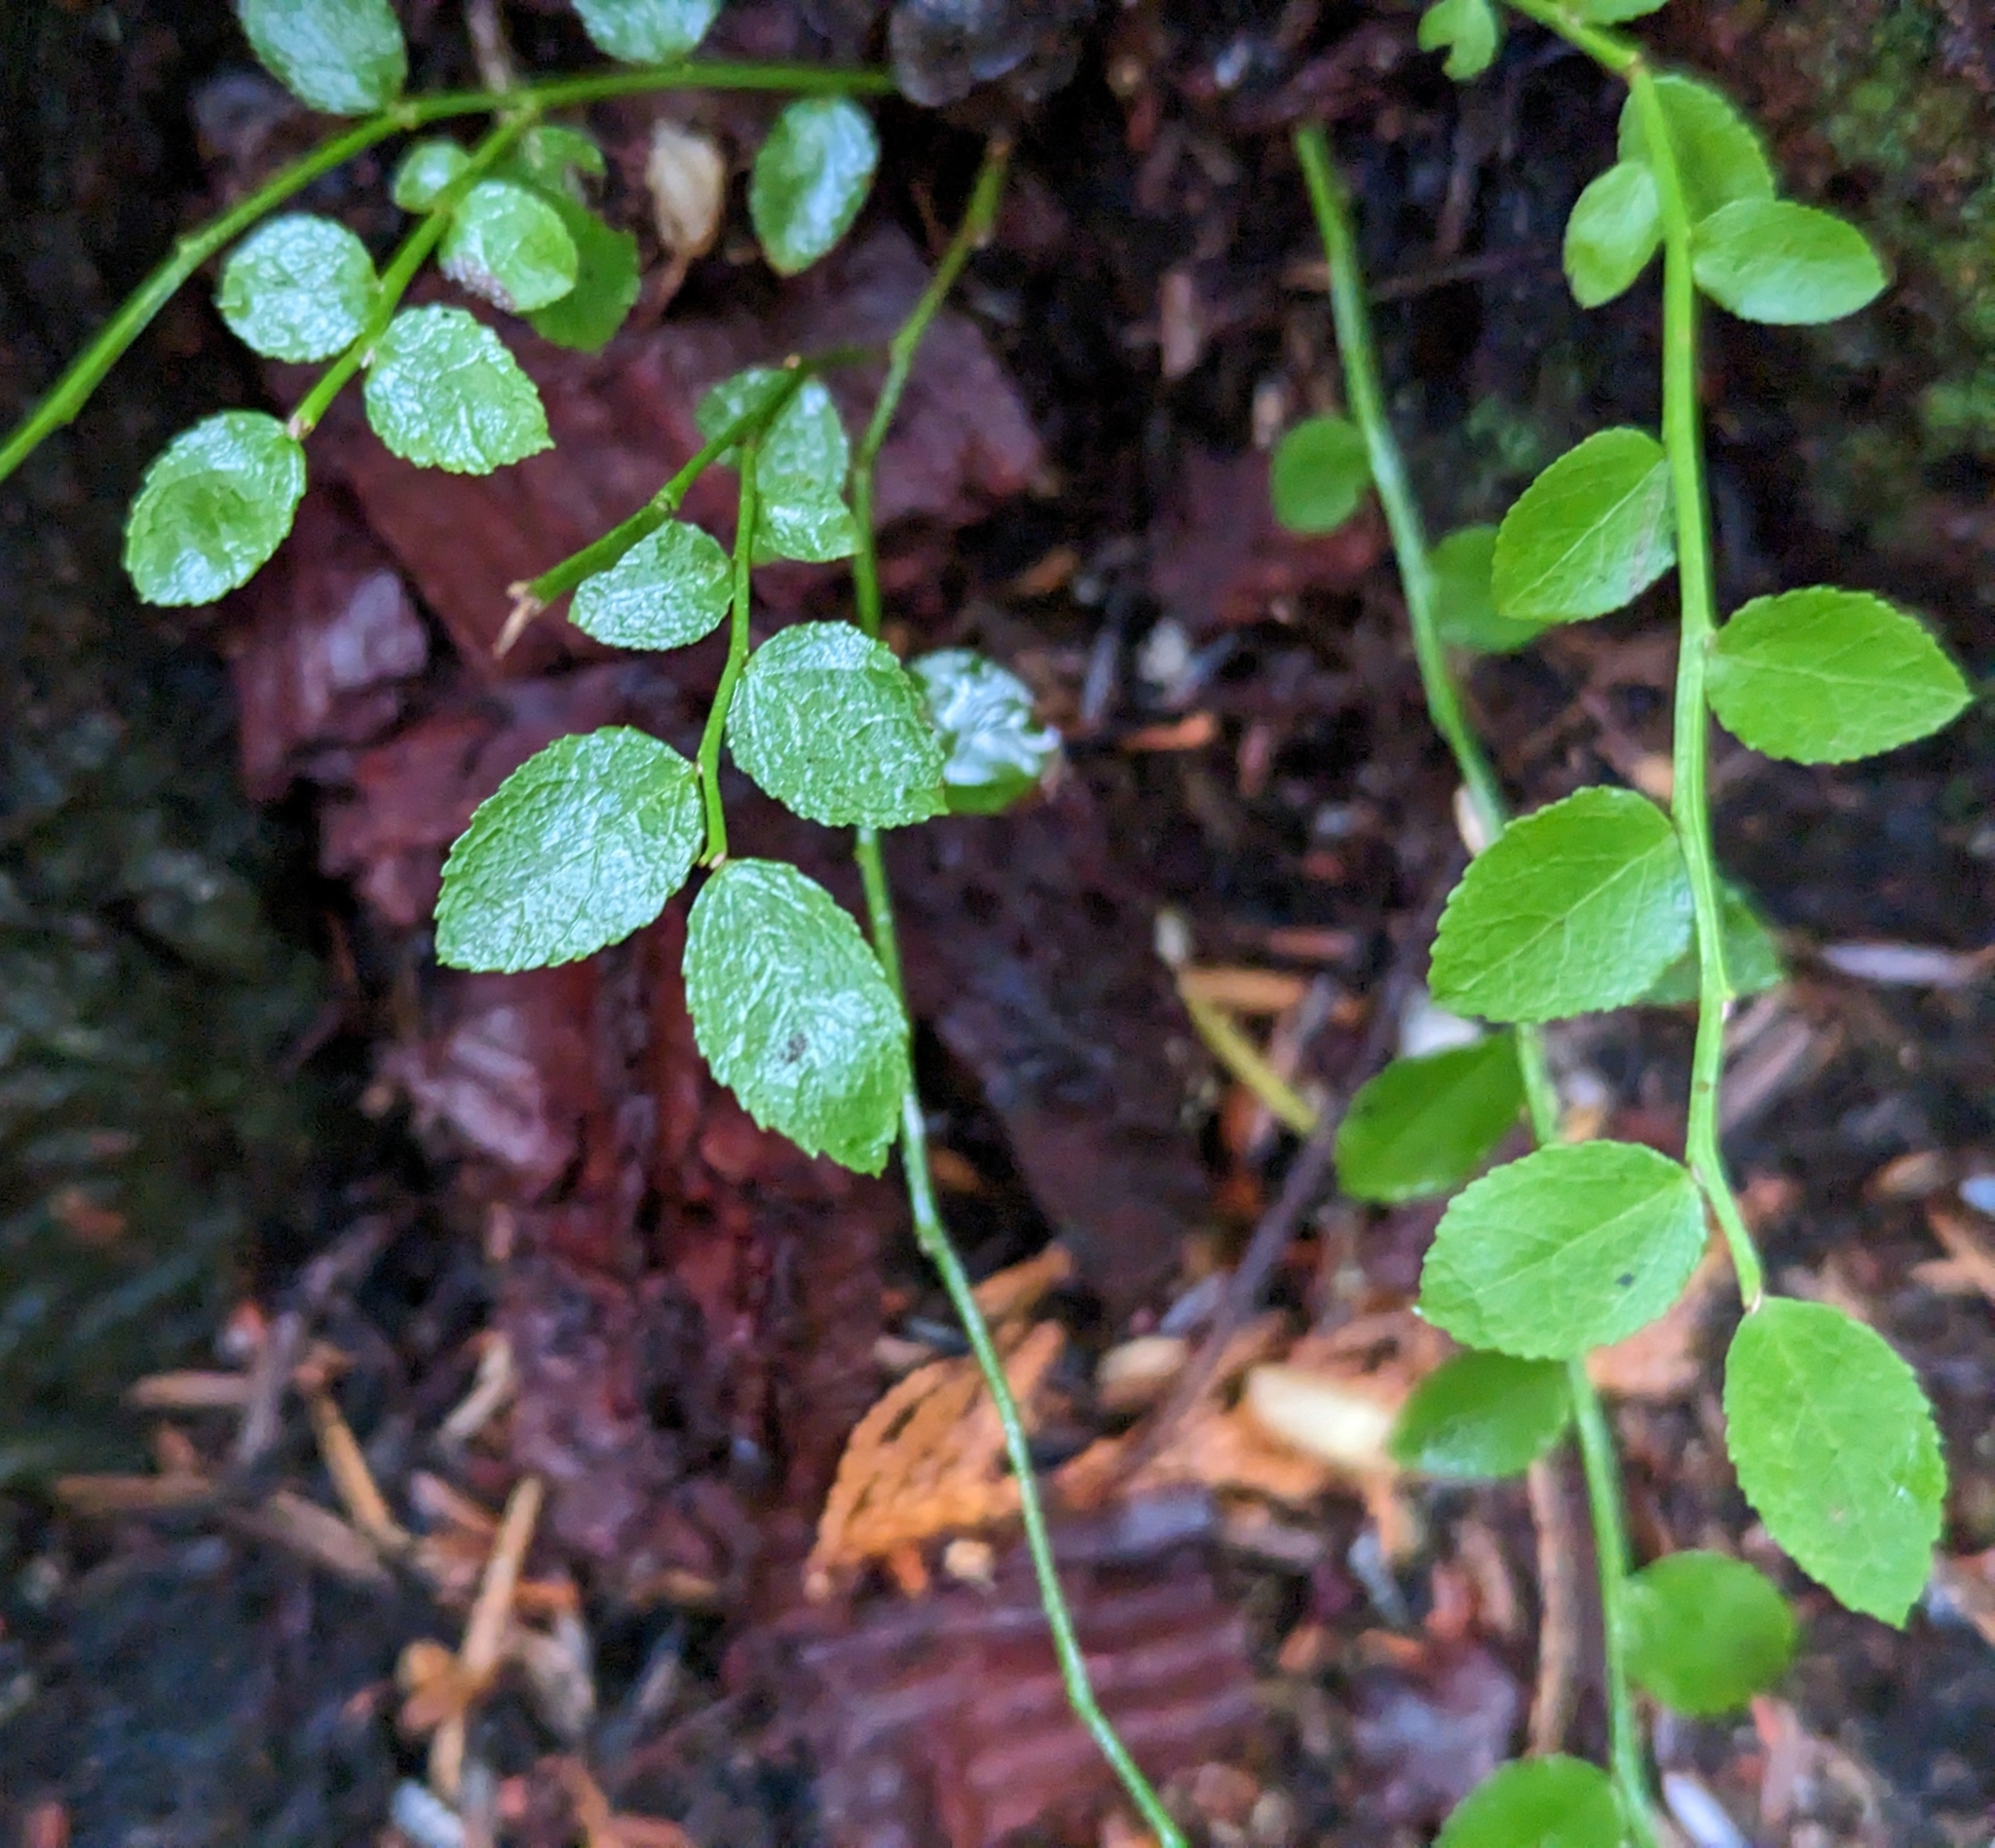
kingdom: Plantae
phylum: Tracheophyta
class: Magnoliopsida
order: Ericales
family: Ericaceae
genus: Vaccinium
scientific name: Vaccinium parvifolium
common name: Red-huckleberry
